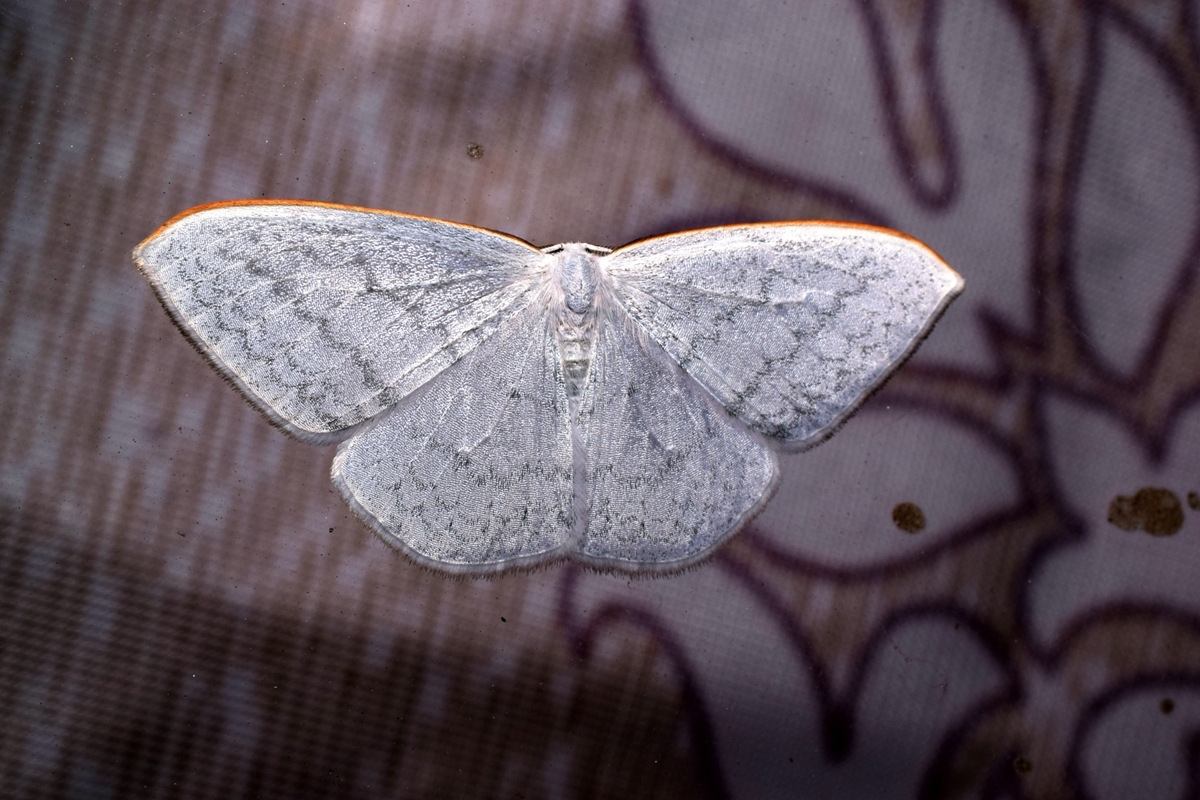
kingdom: Animalia
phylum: Arthropoda
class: Insecta
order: Lepidoptera
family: Drepanidae
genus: Ditrigona
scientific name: Ditrigona quinaria
